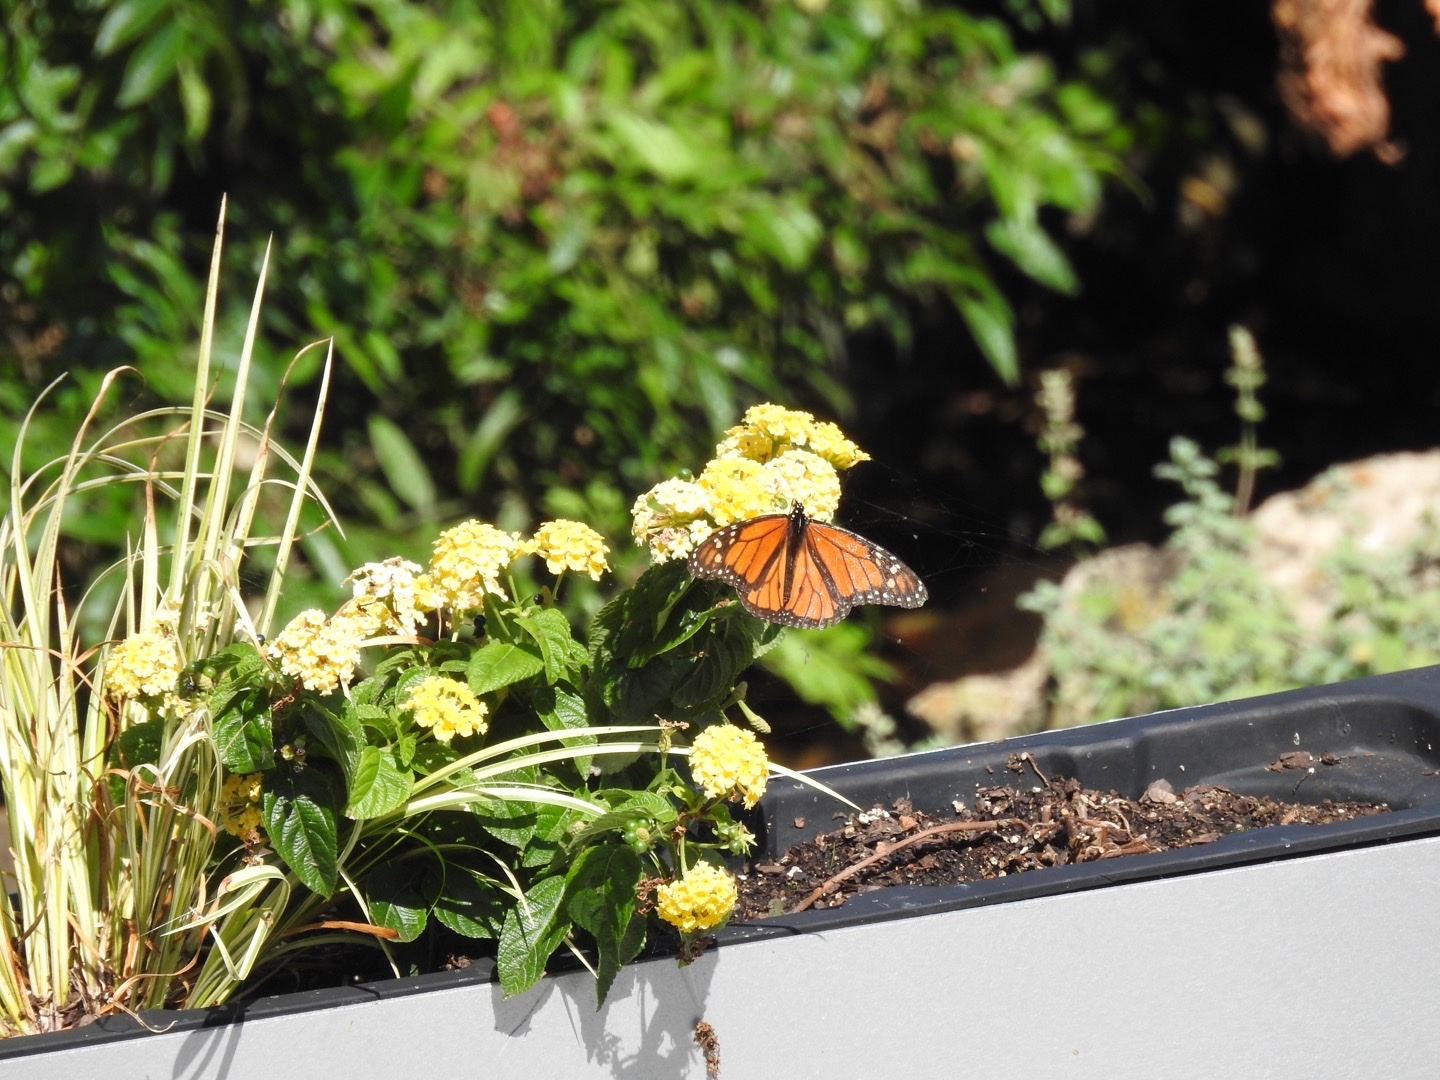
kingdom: Animalia
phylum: Arthropoda
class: Insecta
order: Lepidoptera
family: Nymphalidae
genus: Danaus
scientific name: Danaus plexippus
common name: Monarch
